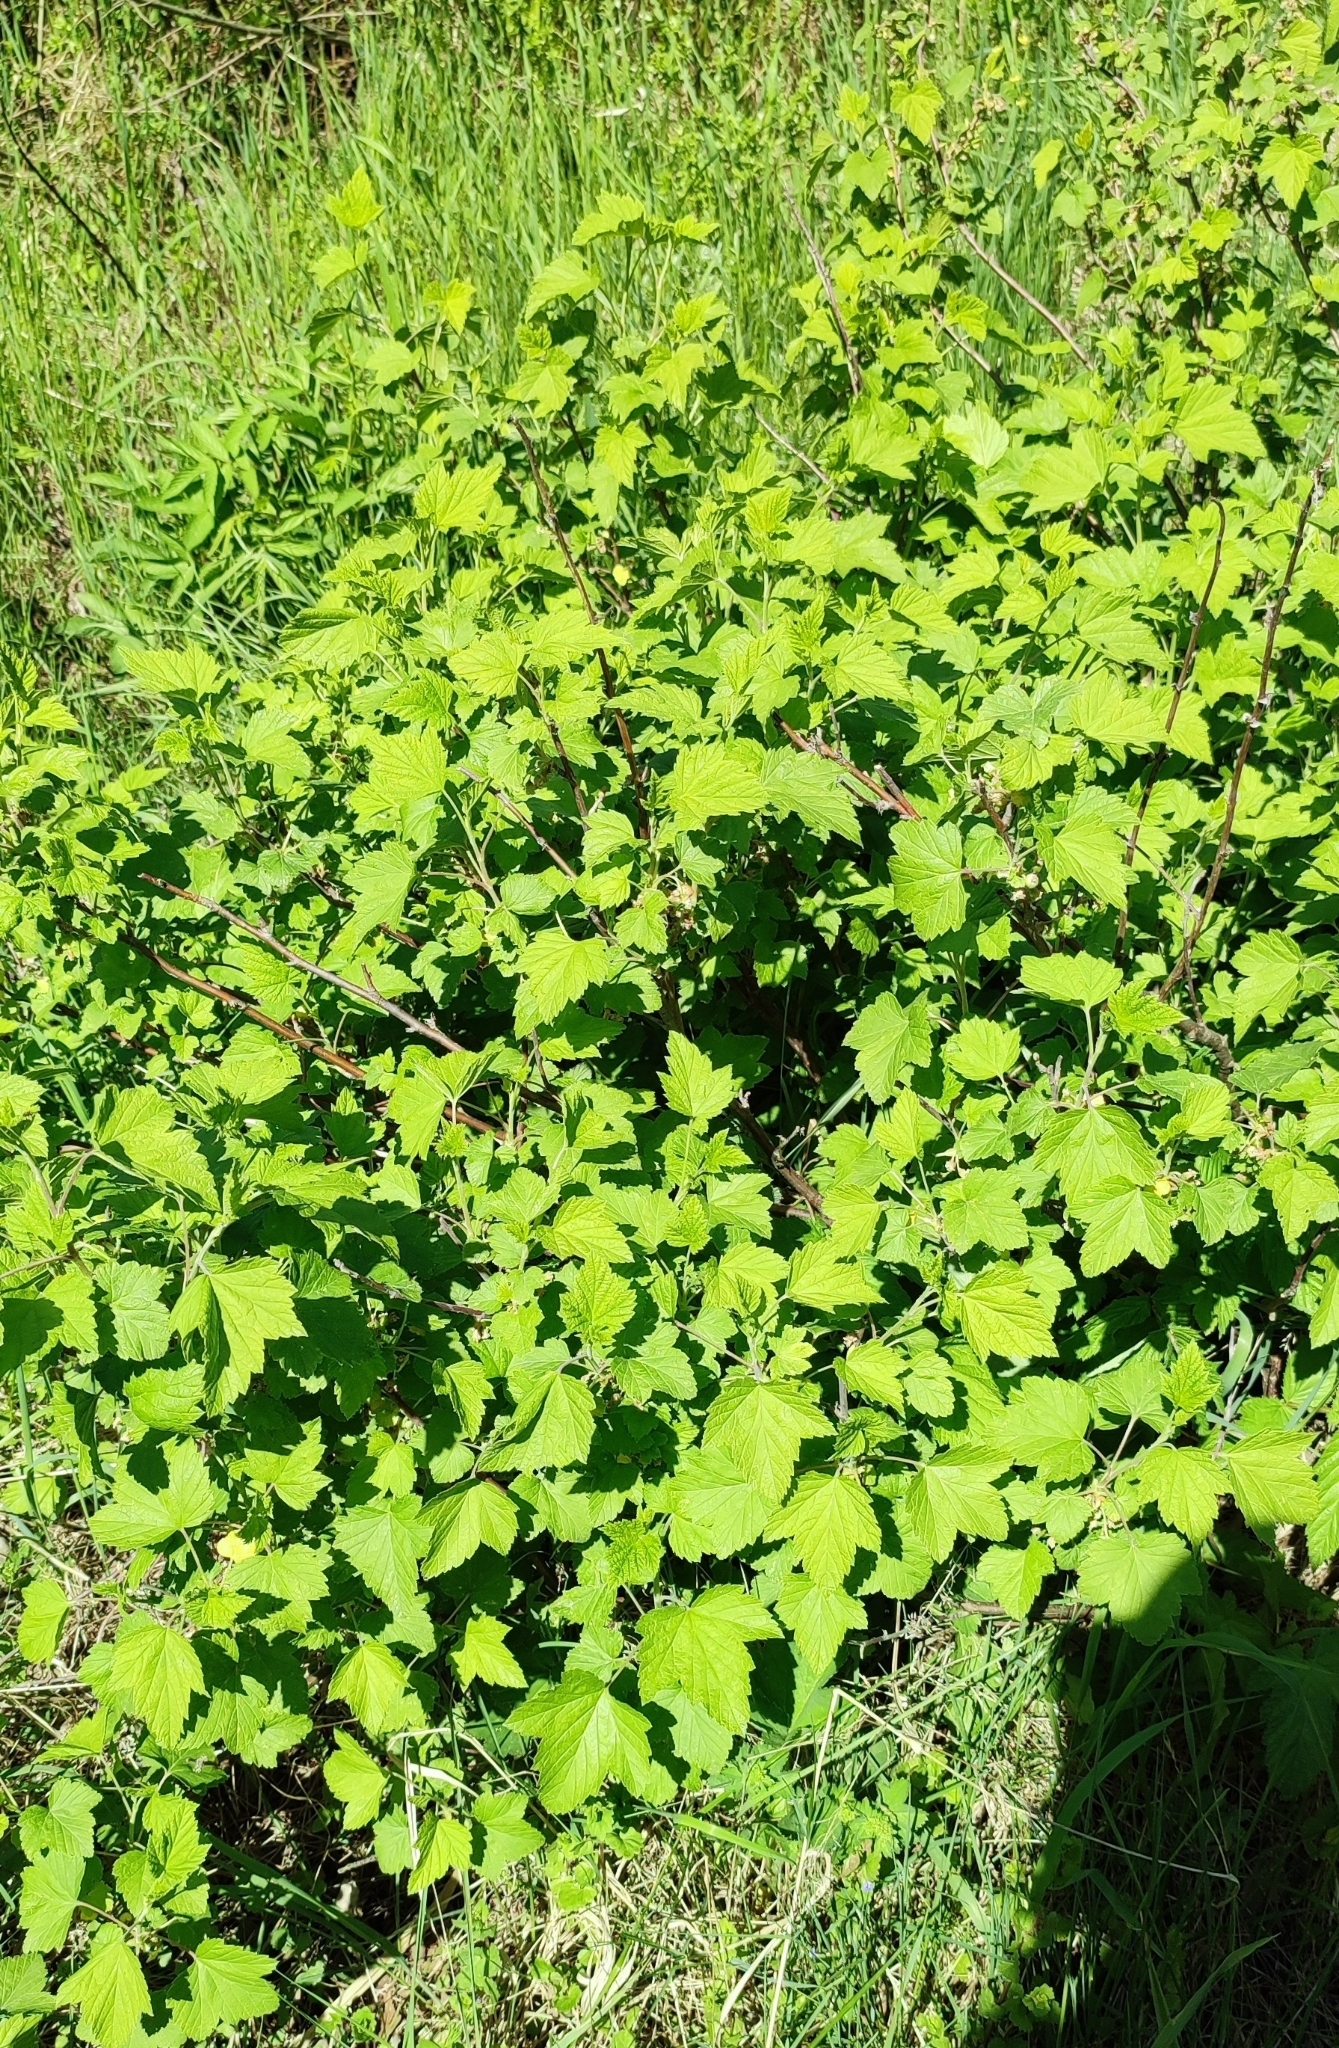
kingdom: Plantae
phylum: Tracheophyta
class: Magnoliopsida
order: Saxifragales
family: Grossulariaceae
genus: Ribes
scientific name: Ribes nigrum
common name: Black currant
